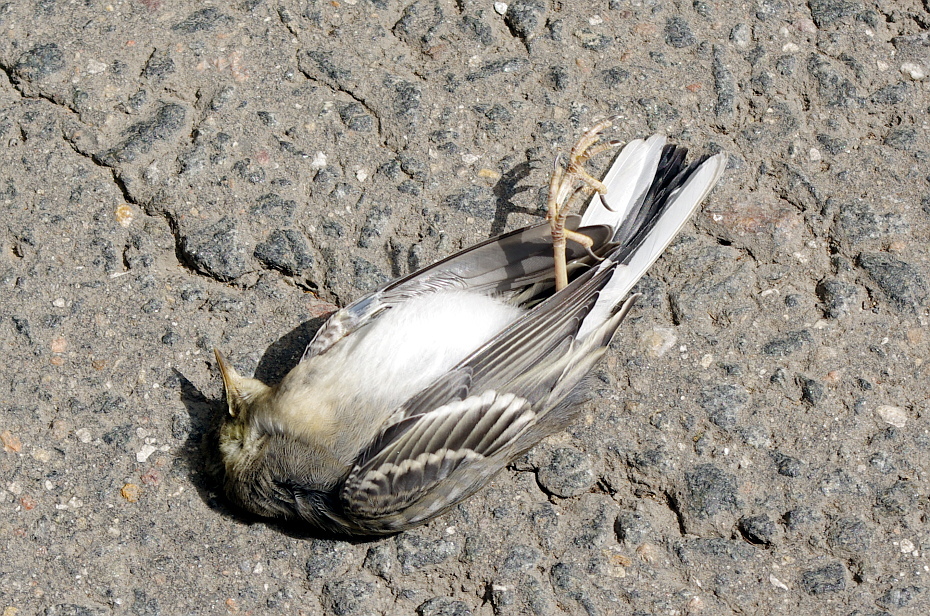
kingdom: Animalia
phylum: Chordata
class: Aves
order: Passeriformes
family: Motacillidae
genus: Motacilla
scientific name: Motacilla alba
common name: White wagtail
